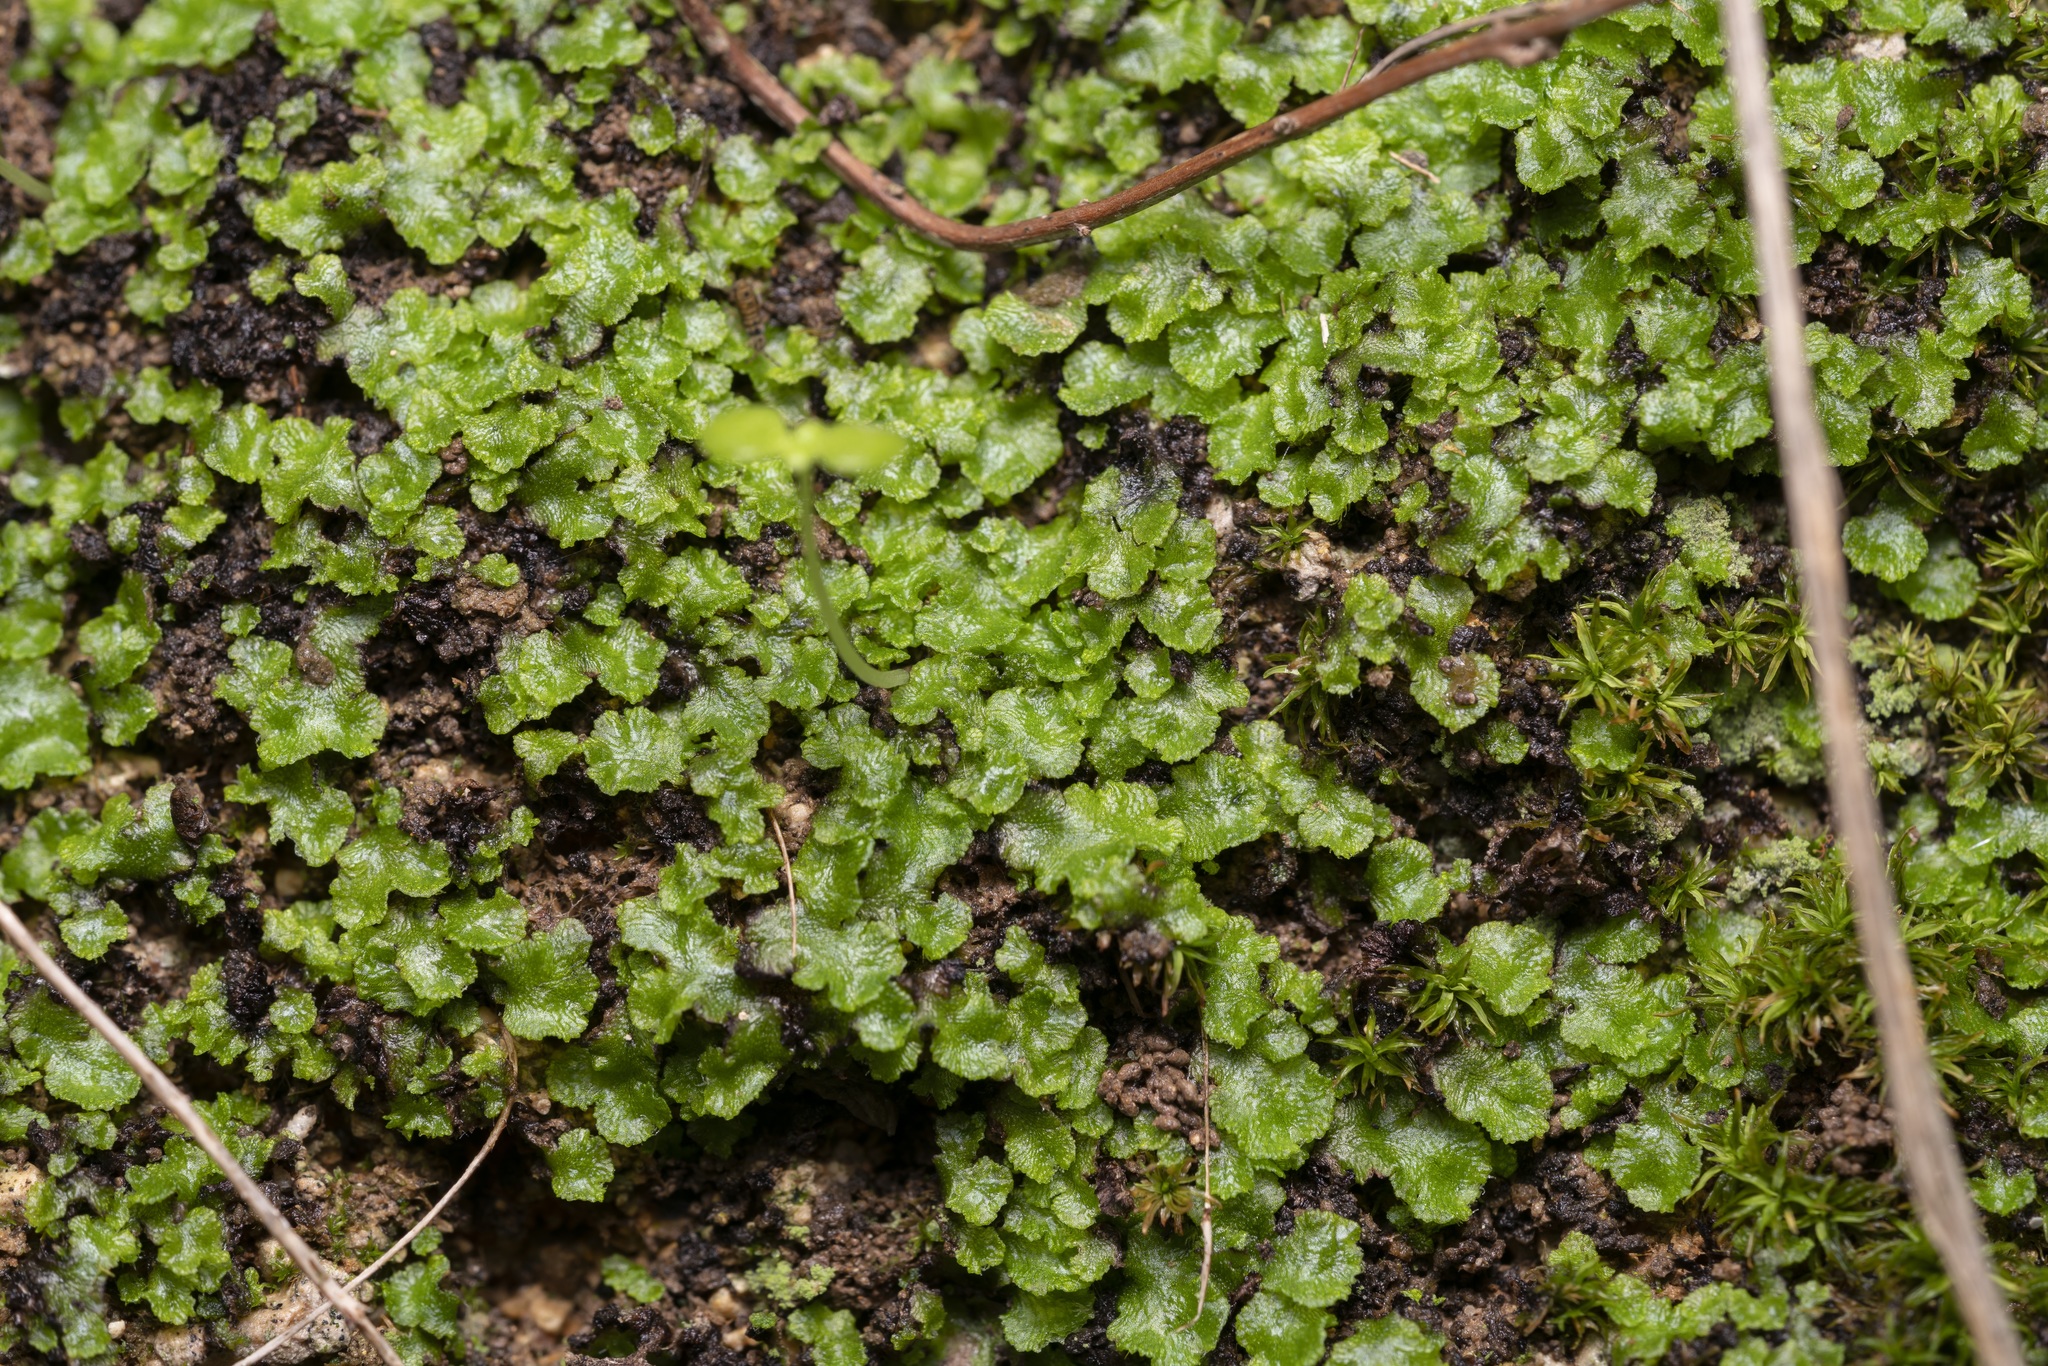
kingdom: Plantae
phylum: Marchantiophyta
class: Marchantiopsida
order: Marchantiales
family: Cleveaceae
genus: Clevea
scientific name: Clevea spathysii
